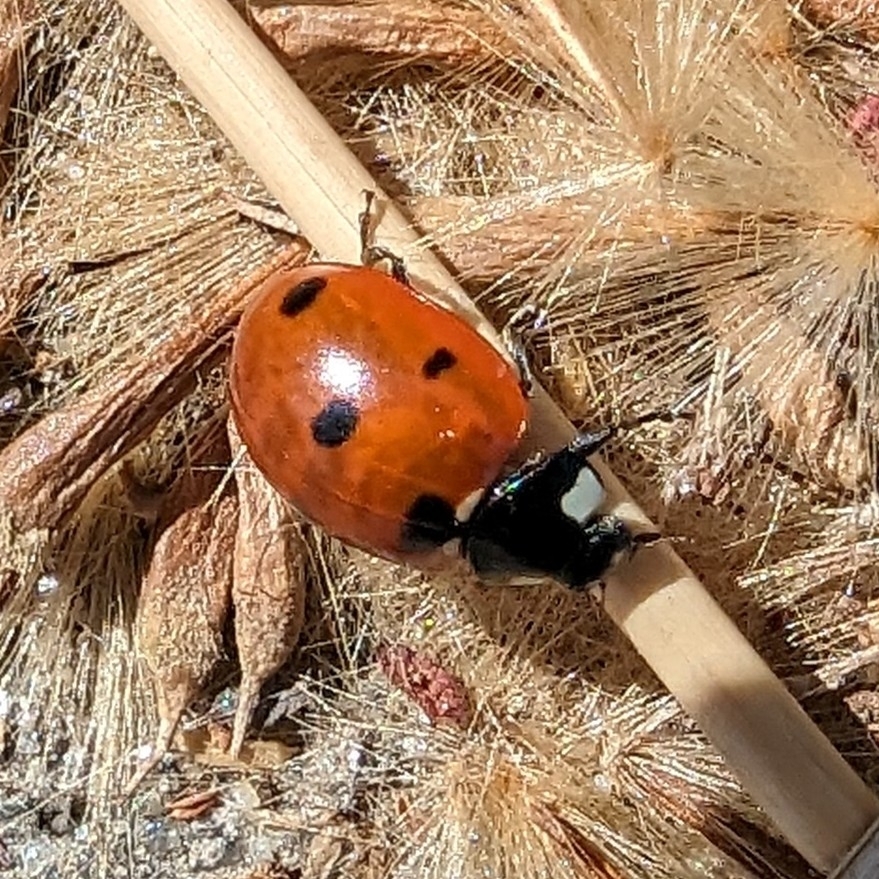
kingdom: Animalia
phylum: Arthropoda
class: Insecta
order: Coleoptera
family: Coccinellidae
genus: Coccinella
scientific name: Coccinella septempunctata
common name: Sevenspotted lady beetle
